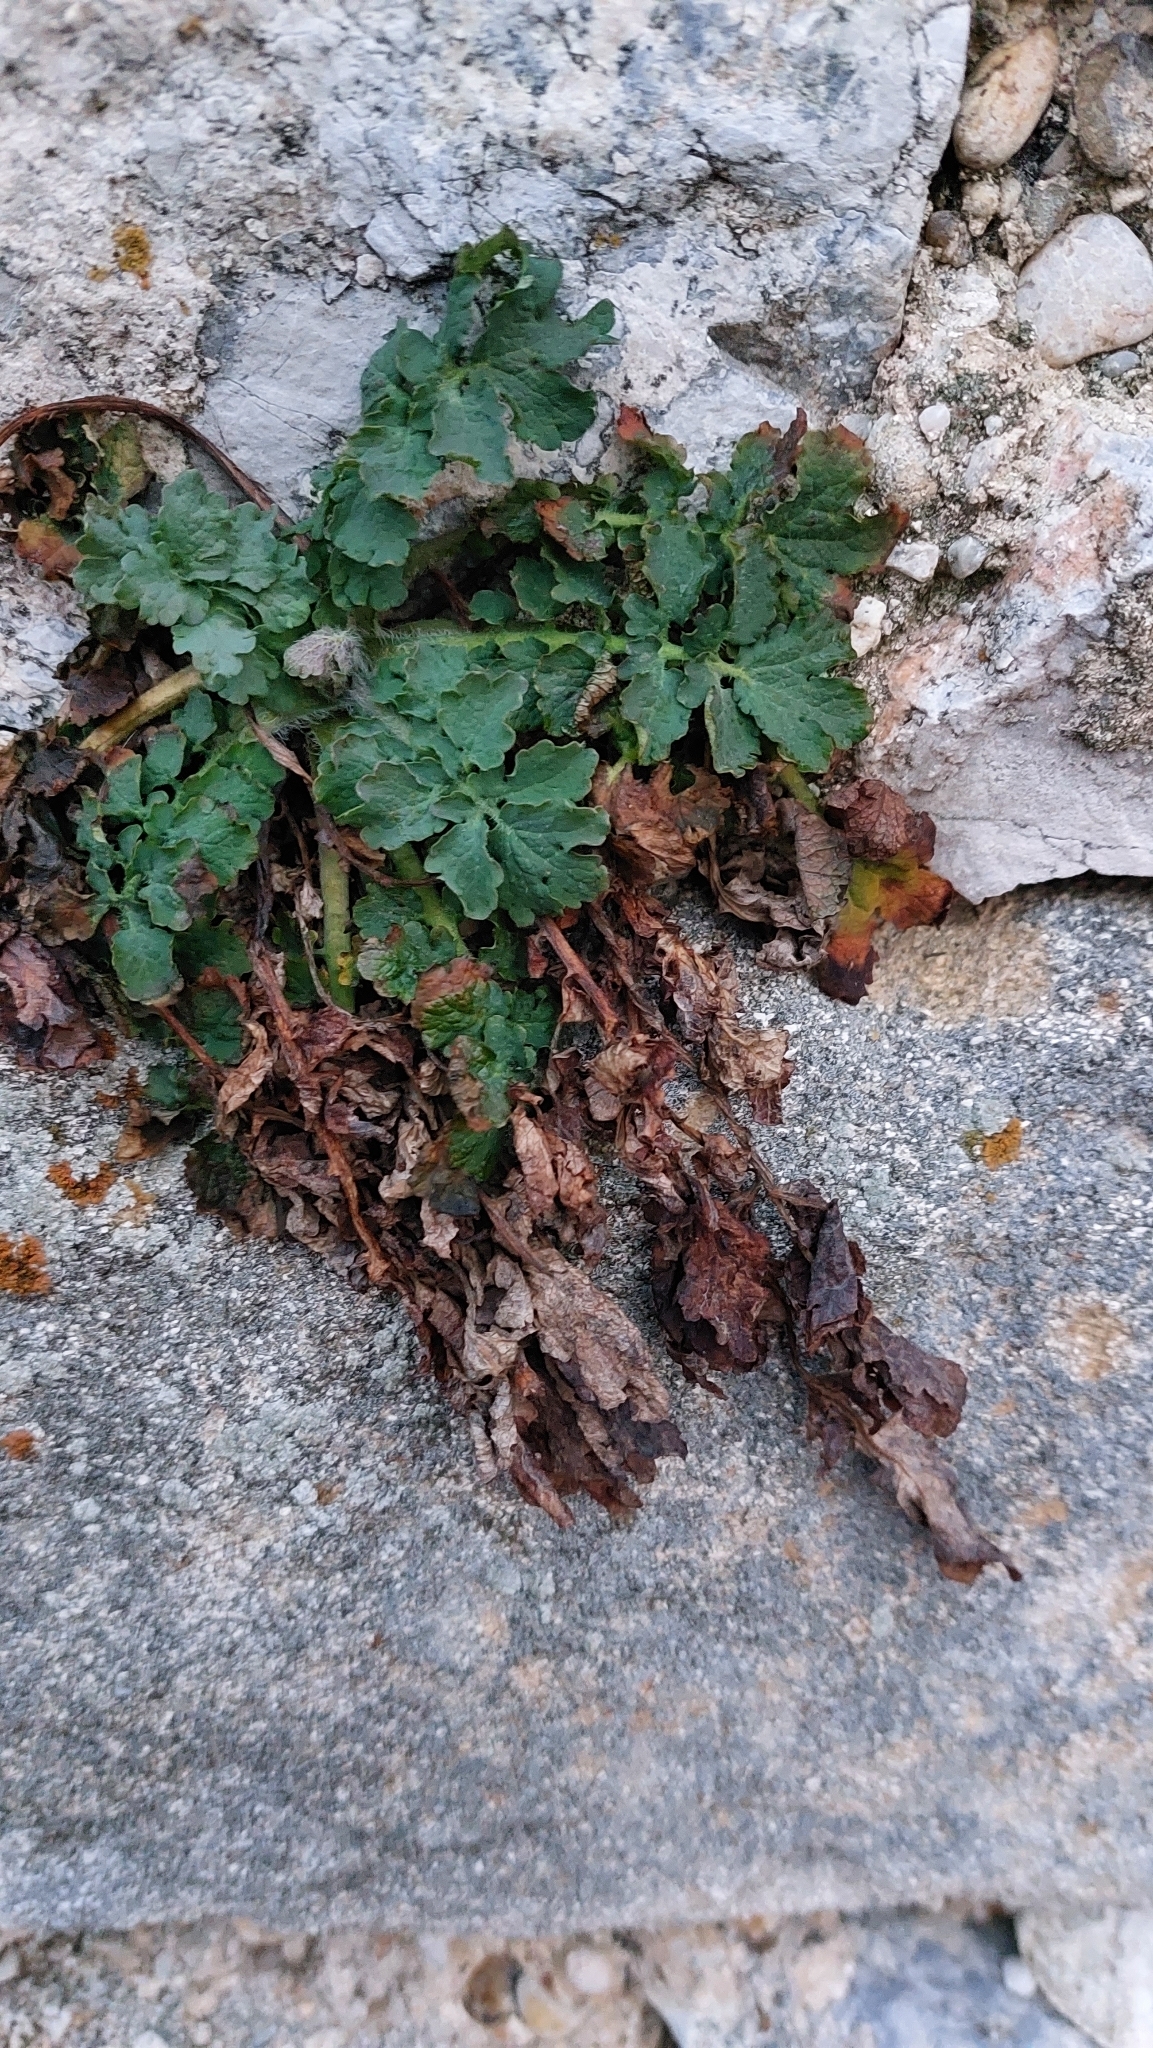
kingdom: Plantae
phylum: Tracheophyta
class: Magnoliopsida
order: Ranunculales
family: Papaveraceae
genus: Chelidonium
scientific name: Chelidonium majus
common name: Greater celandine
